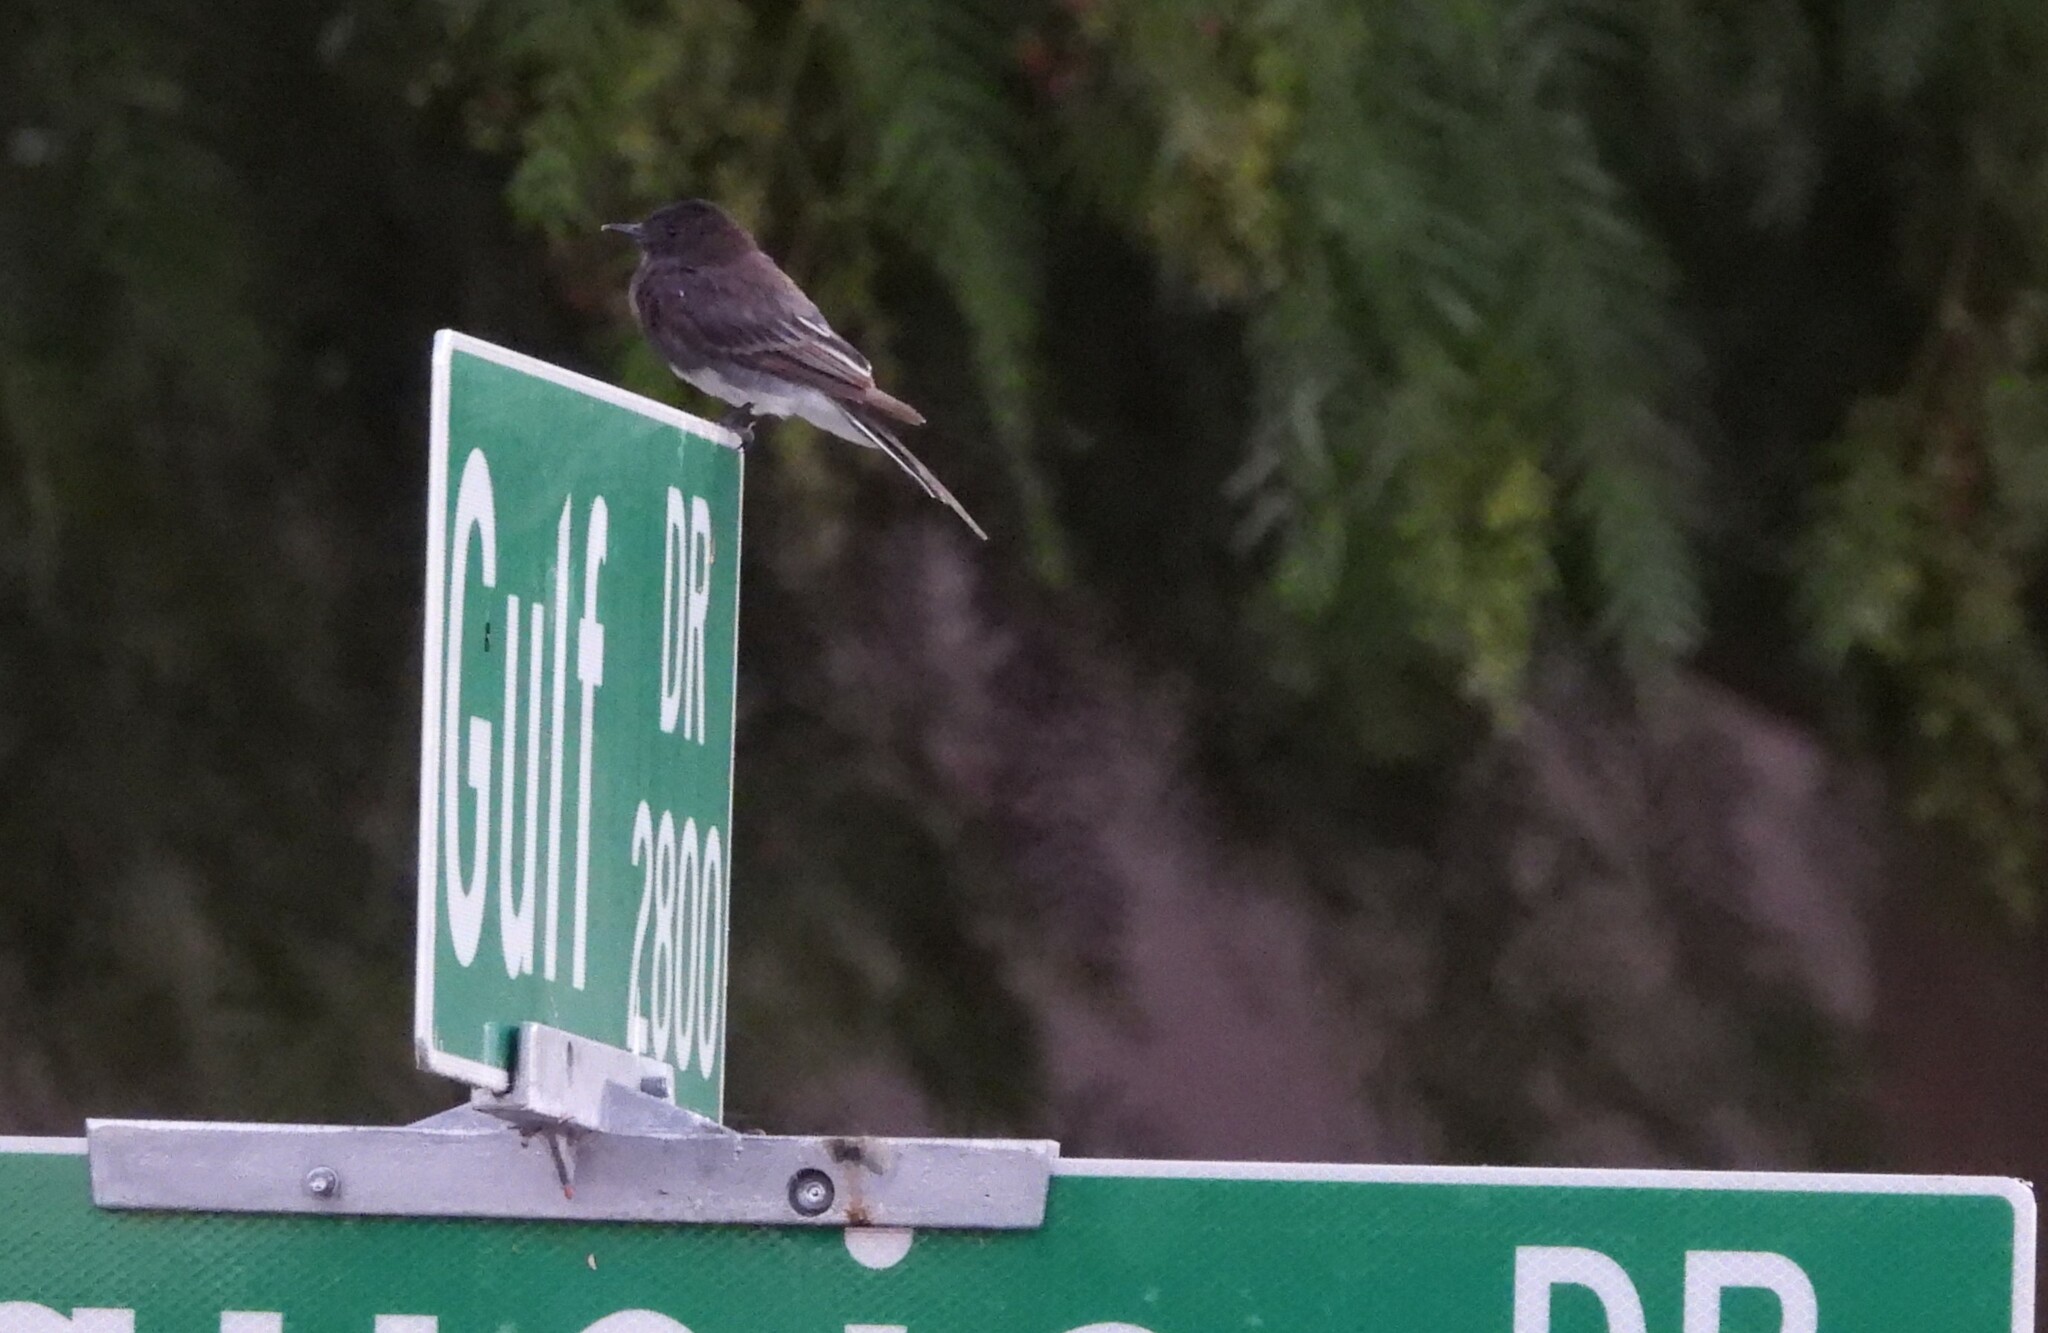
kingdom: Animalia
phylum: Chordata
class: Aves
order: Passeriformes
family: Tyrannidae
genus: Sayornis
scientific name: Sayornis nigricans
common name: Black phoebe
